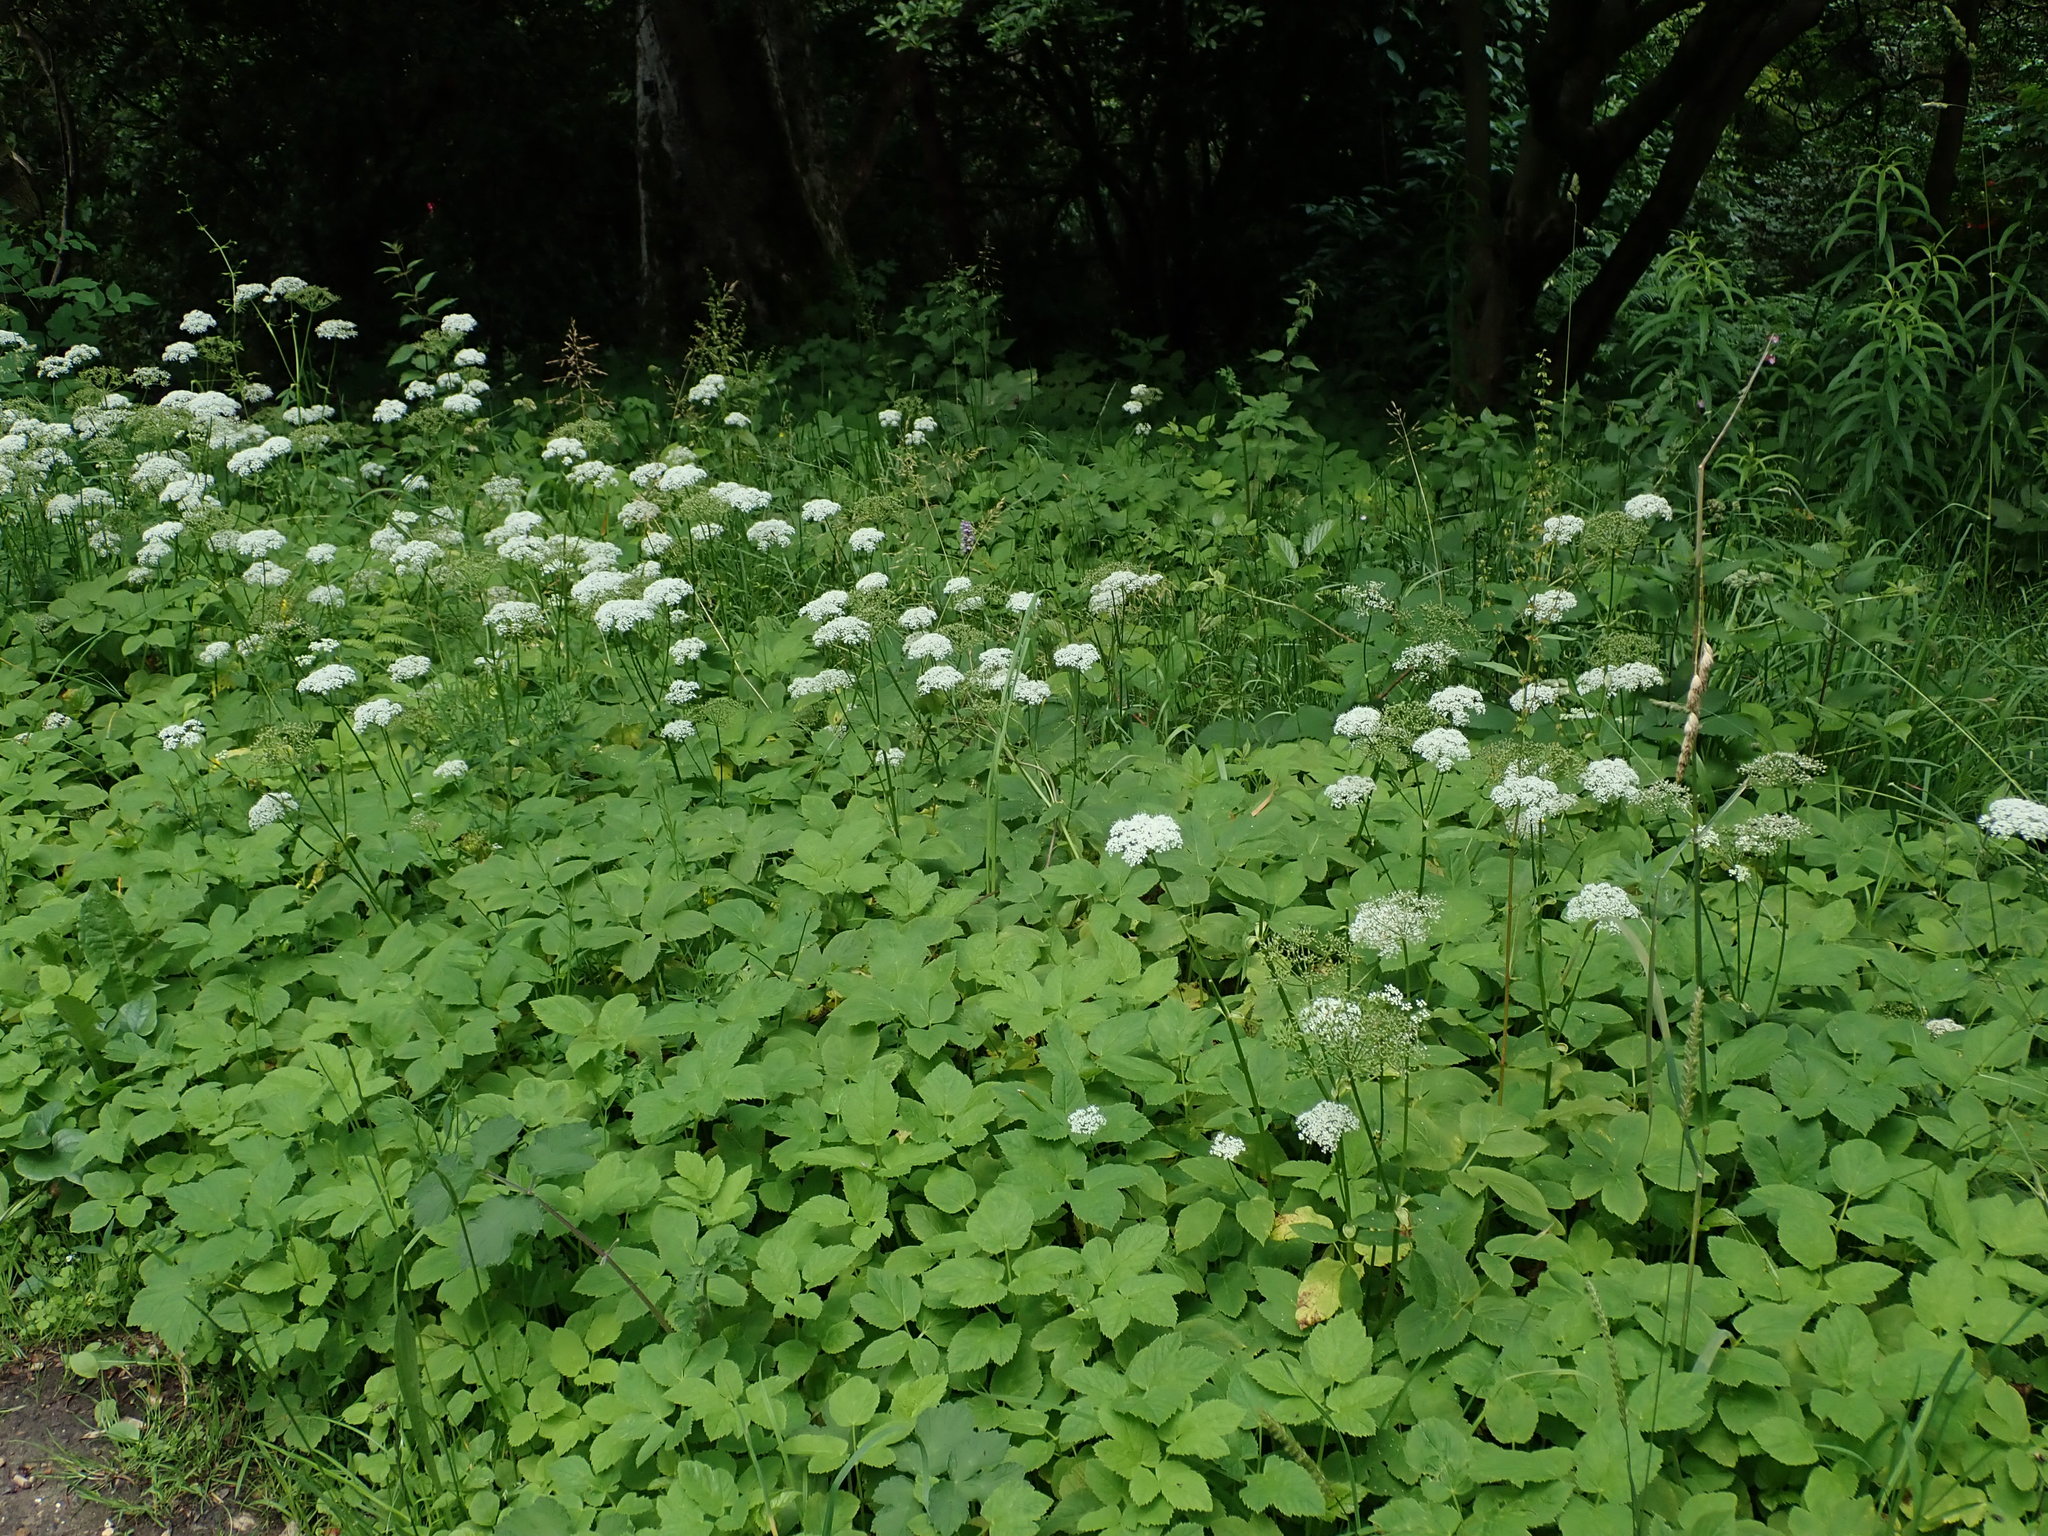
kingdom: Plantae
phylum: Tracheophyta
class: Magnoliopsida
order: Apiales
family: Apiaceae
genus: Aegopodium
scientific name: Aegopodium podagraria
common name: Ground-elder
